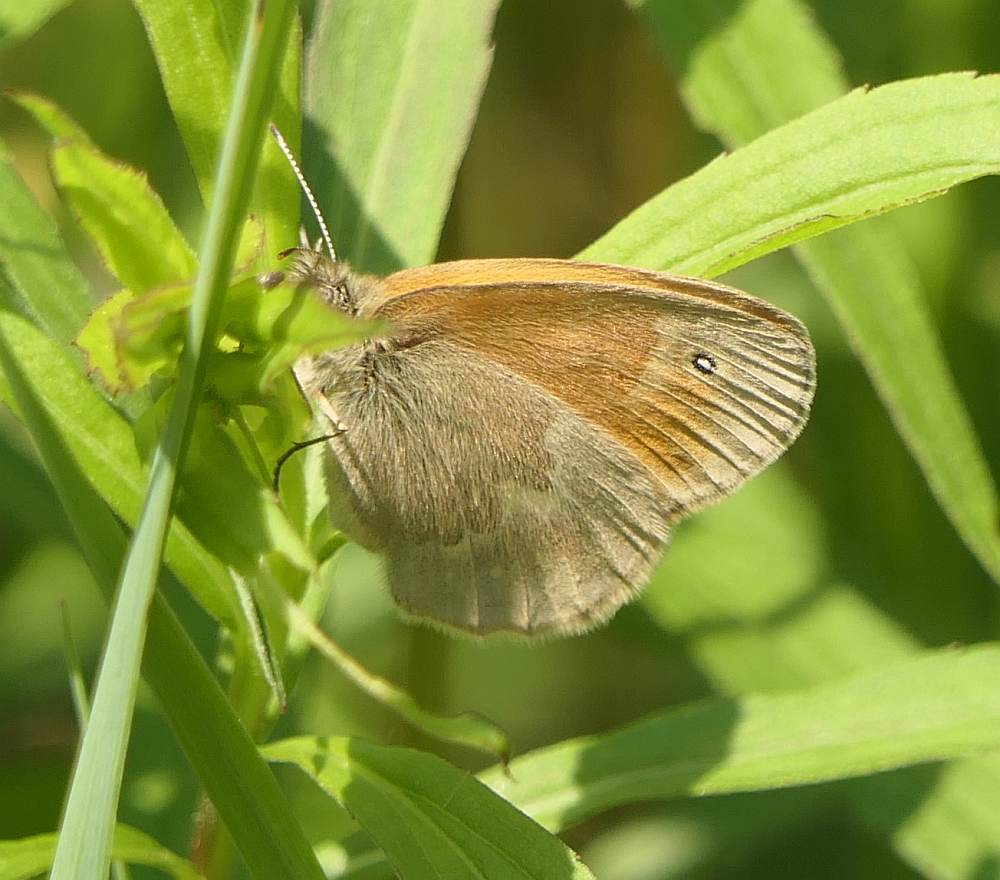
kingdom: Animalia
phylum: Arthropoda
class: Insecta
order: Lepidoptera
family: Nymphalidae
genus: Coenonympha
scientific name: Coenonympha california
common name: Common ringlet
